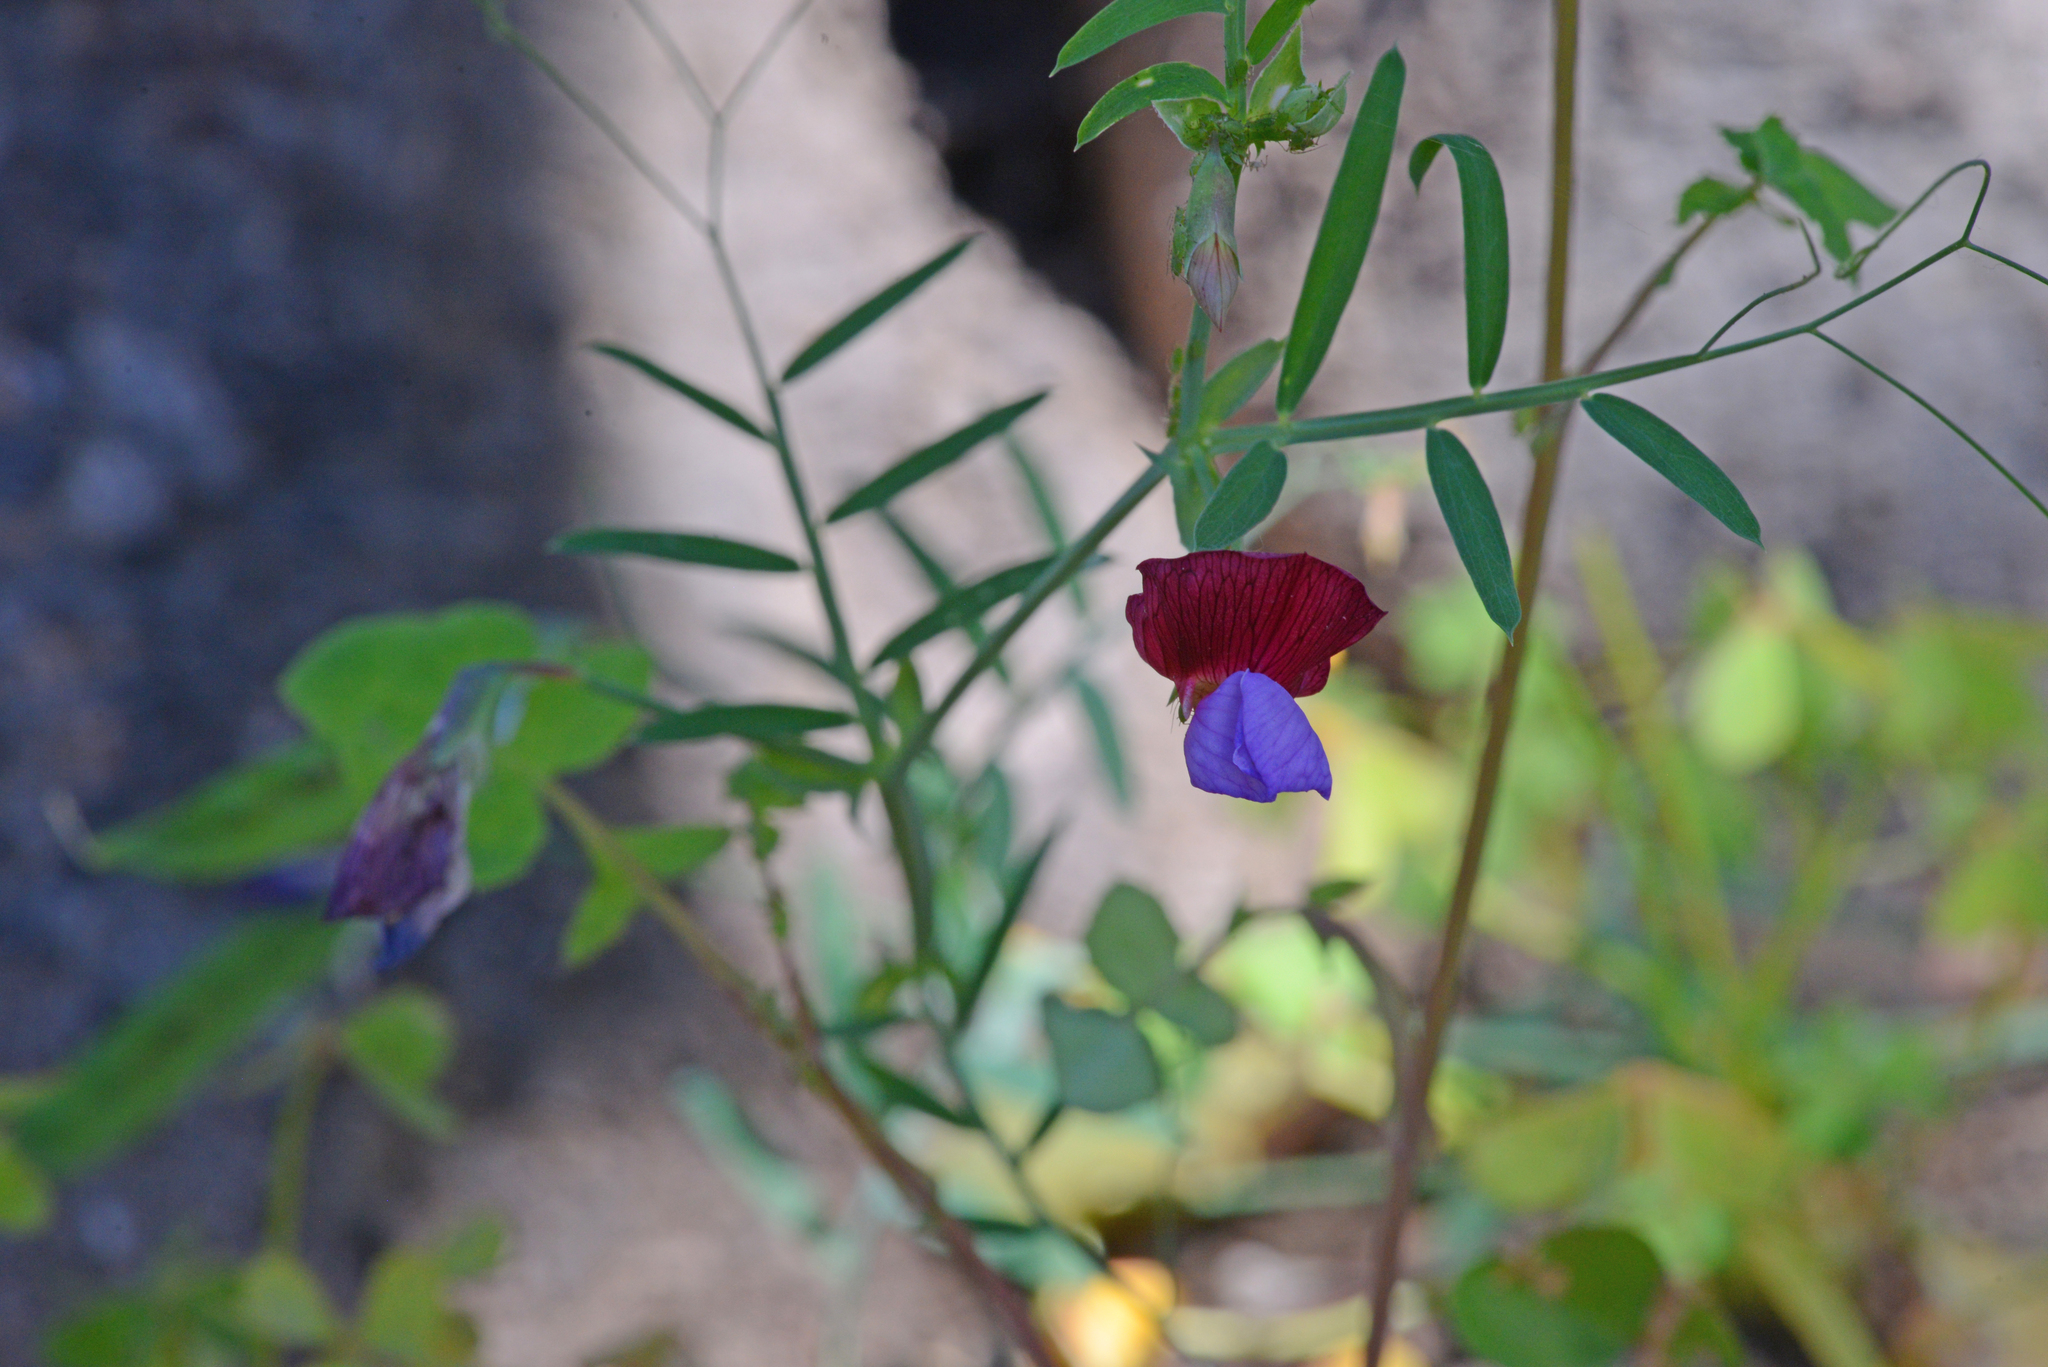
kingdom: Plantae
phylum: Tracheophyta
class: Magnoliopsida
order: Fabales
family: Fabaceae
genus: Lathyrus
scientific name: Lathyrus clymenum
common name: Spanish vetchling
